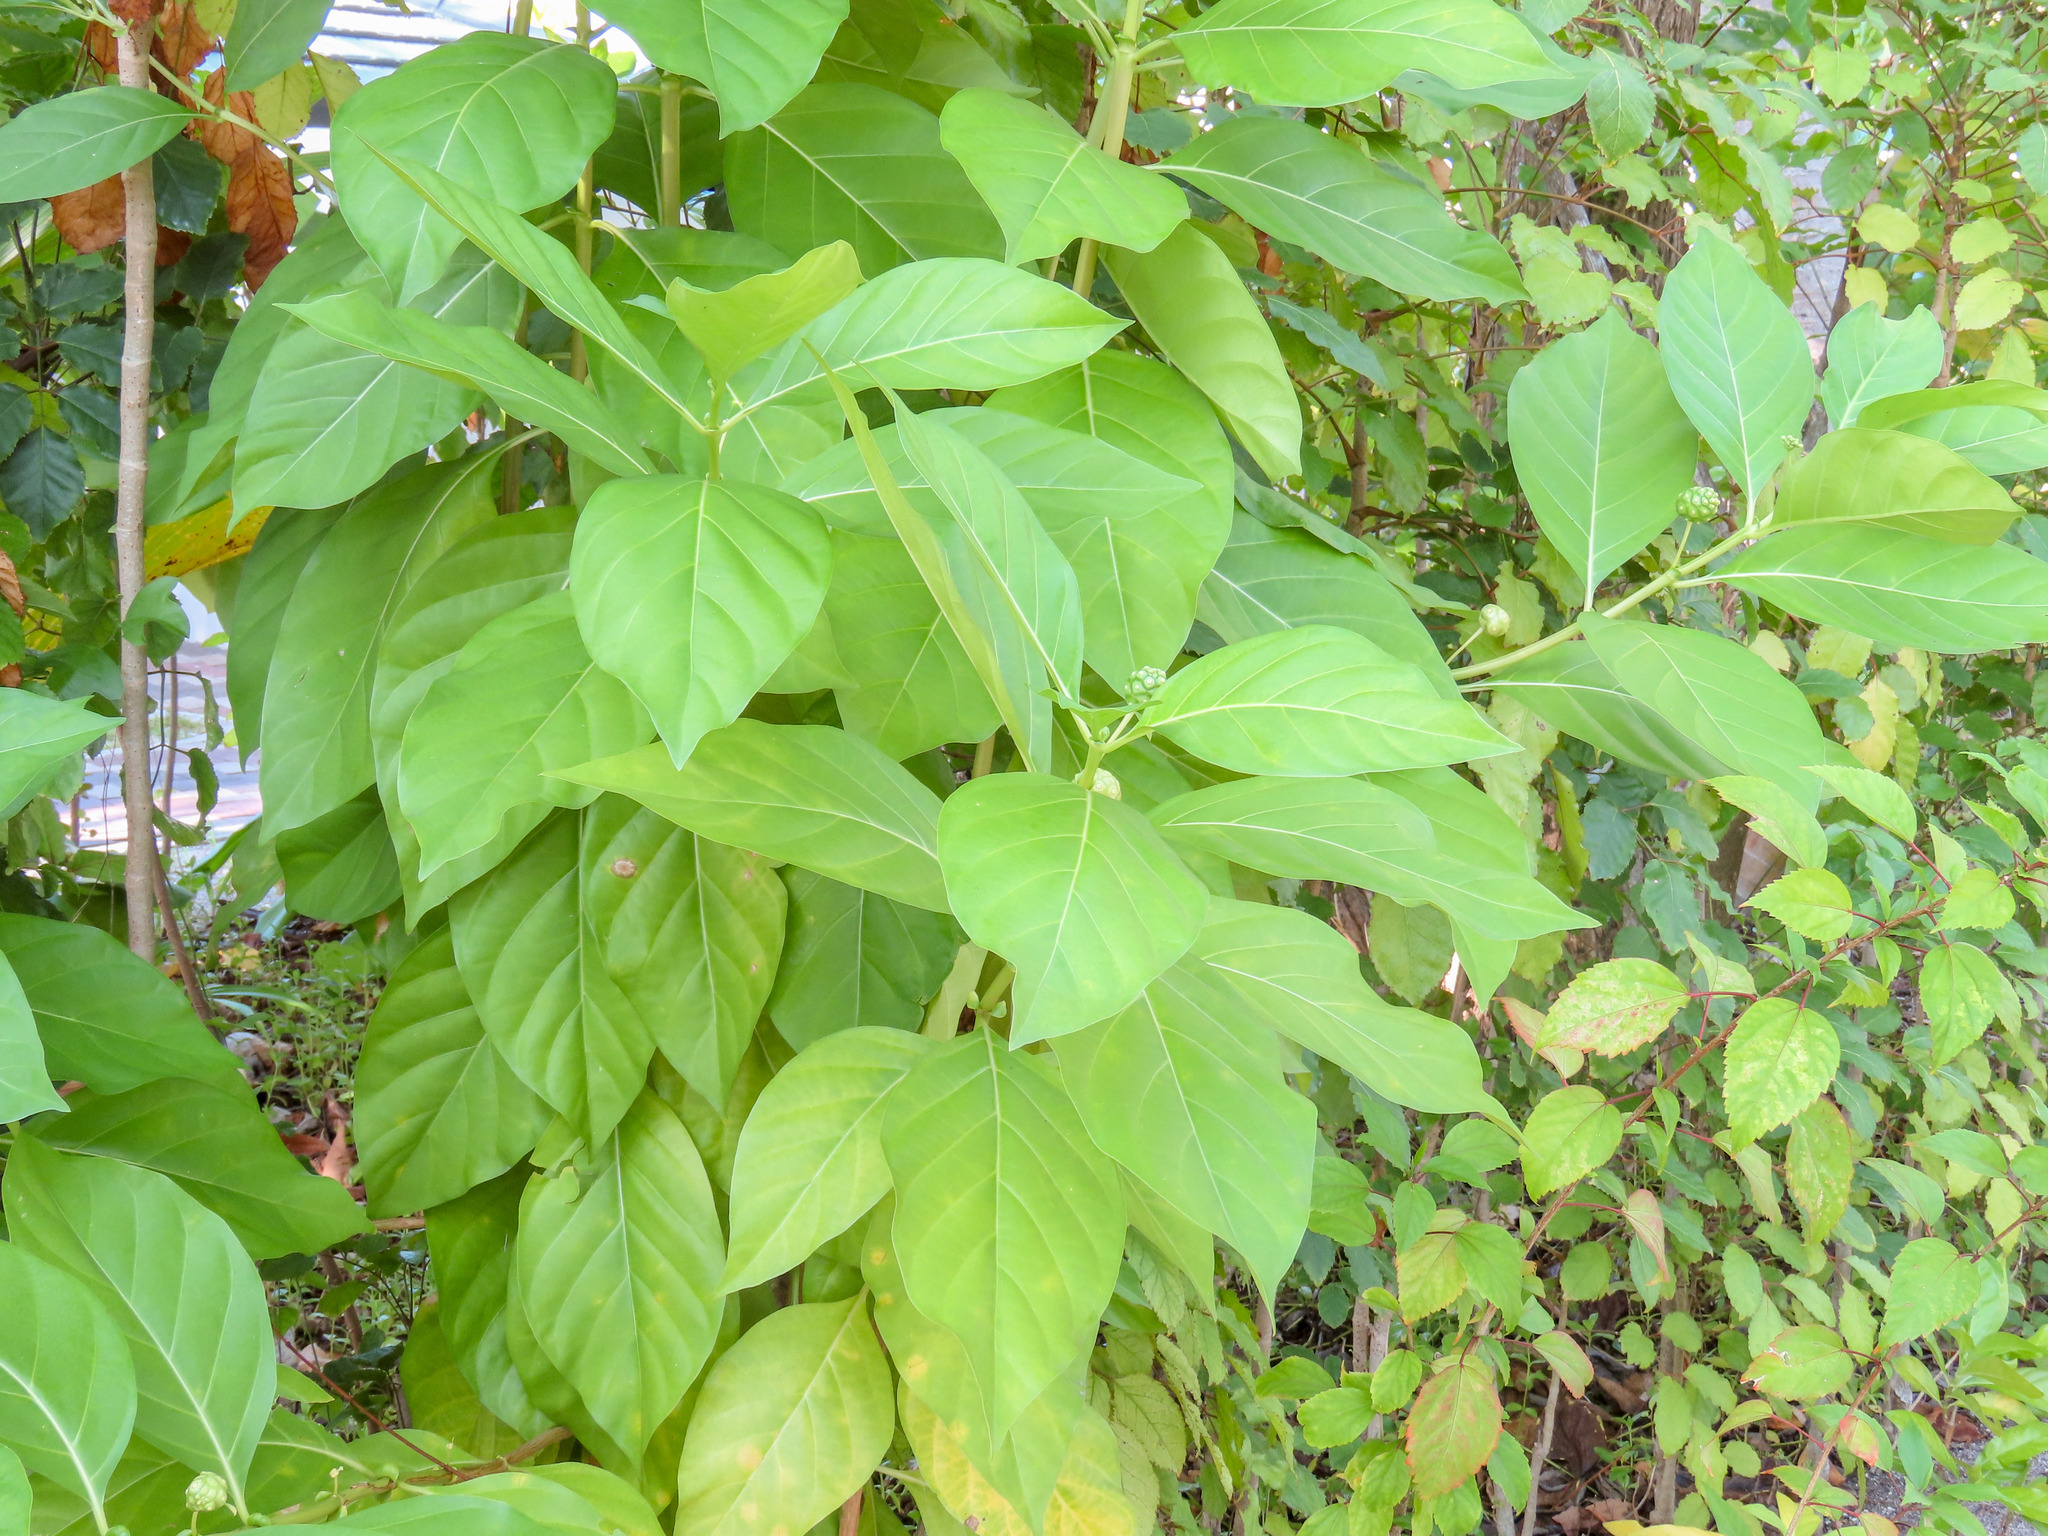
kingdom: Plantae
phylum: Tracheophyta
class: Magnoliopsida
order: Gentianales
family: Rubiaceae
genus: Morinda
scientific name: Morinda citrifolia
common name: Indian-mulberry
